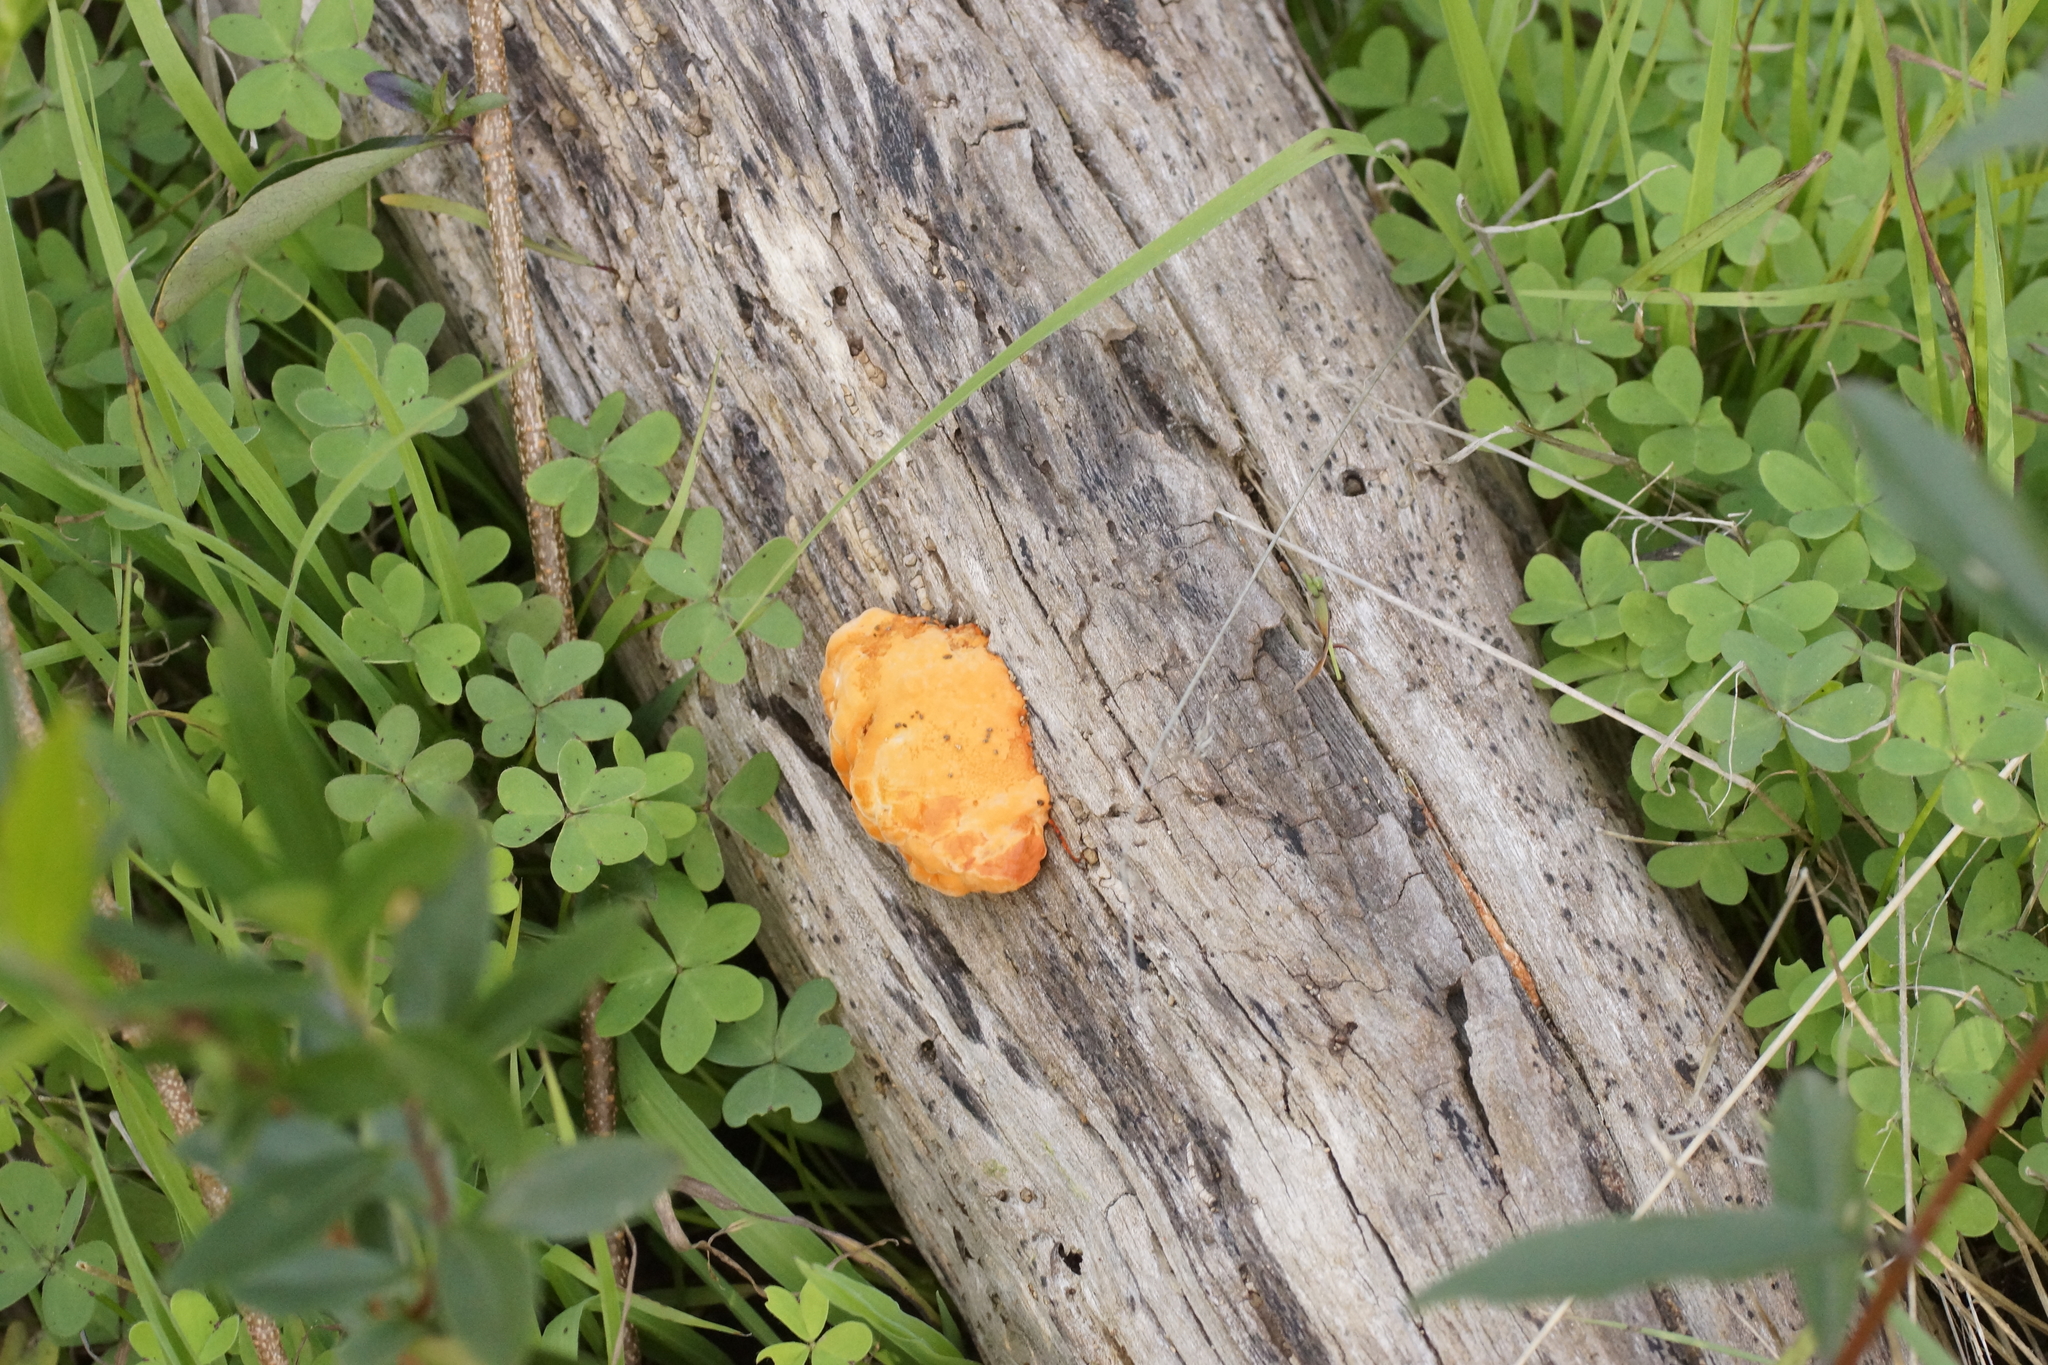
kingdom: Fungi
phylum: Basidiomycota
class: Agaricomycetes
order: Polyporales
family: Polyporaceae
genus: Trametes
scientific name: Trametes coccinea
